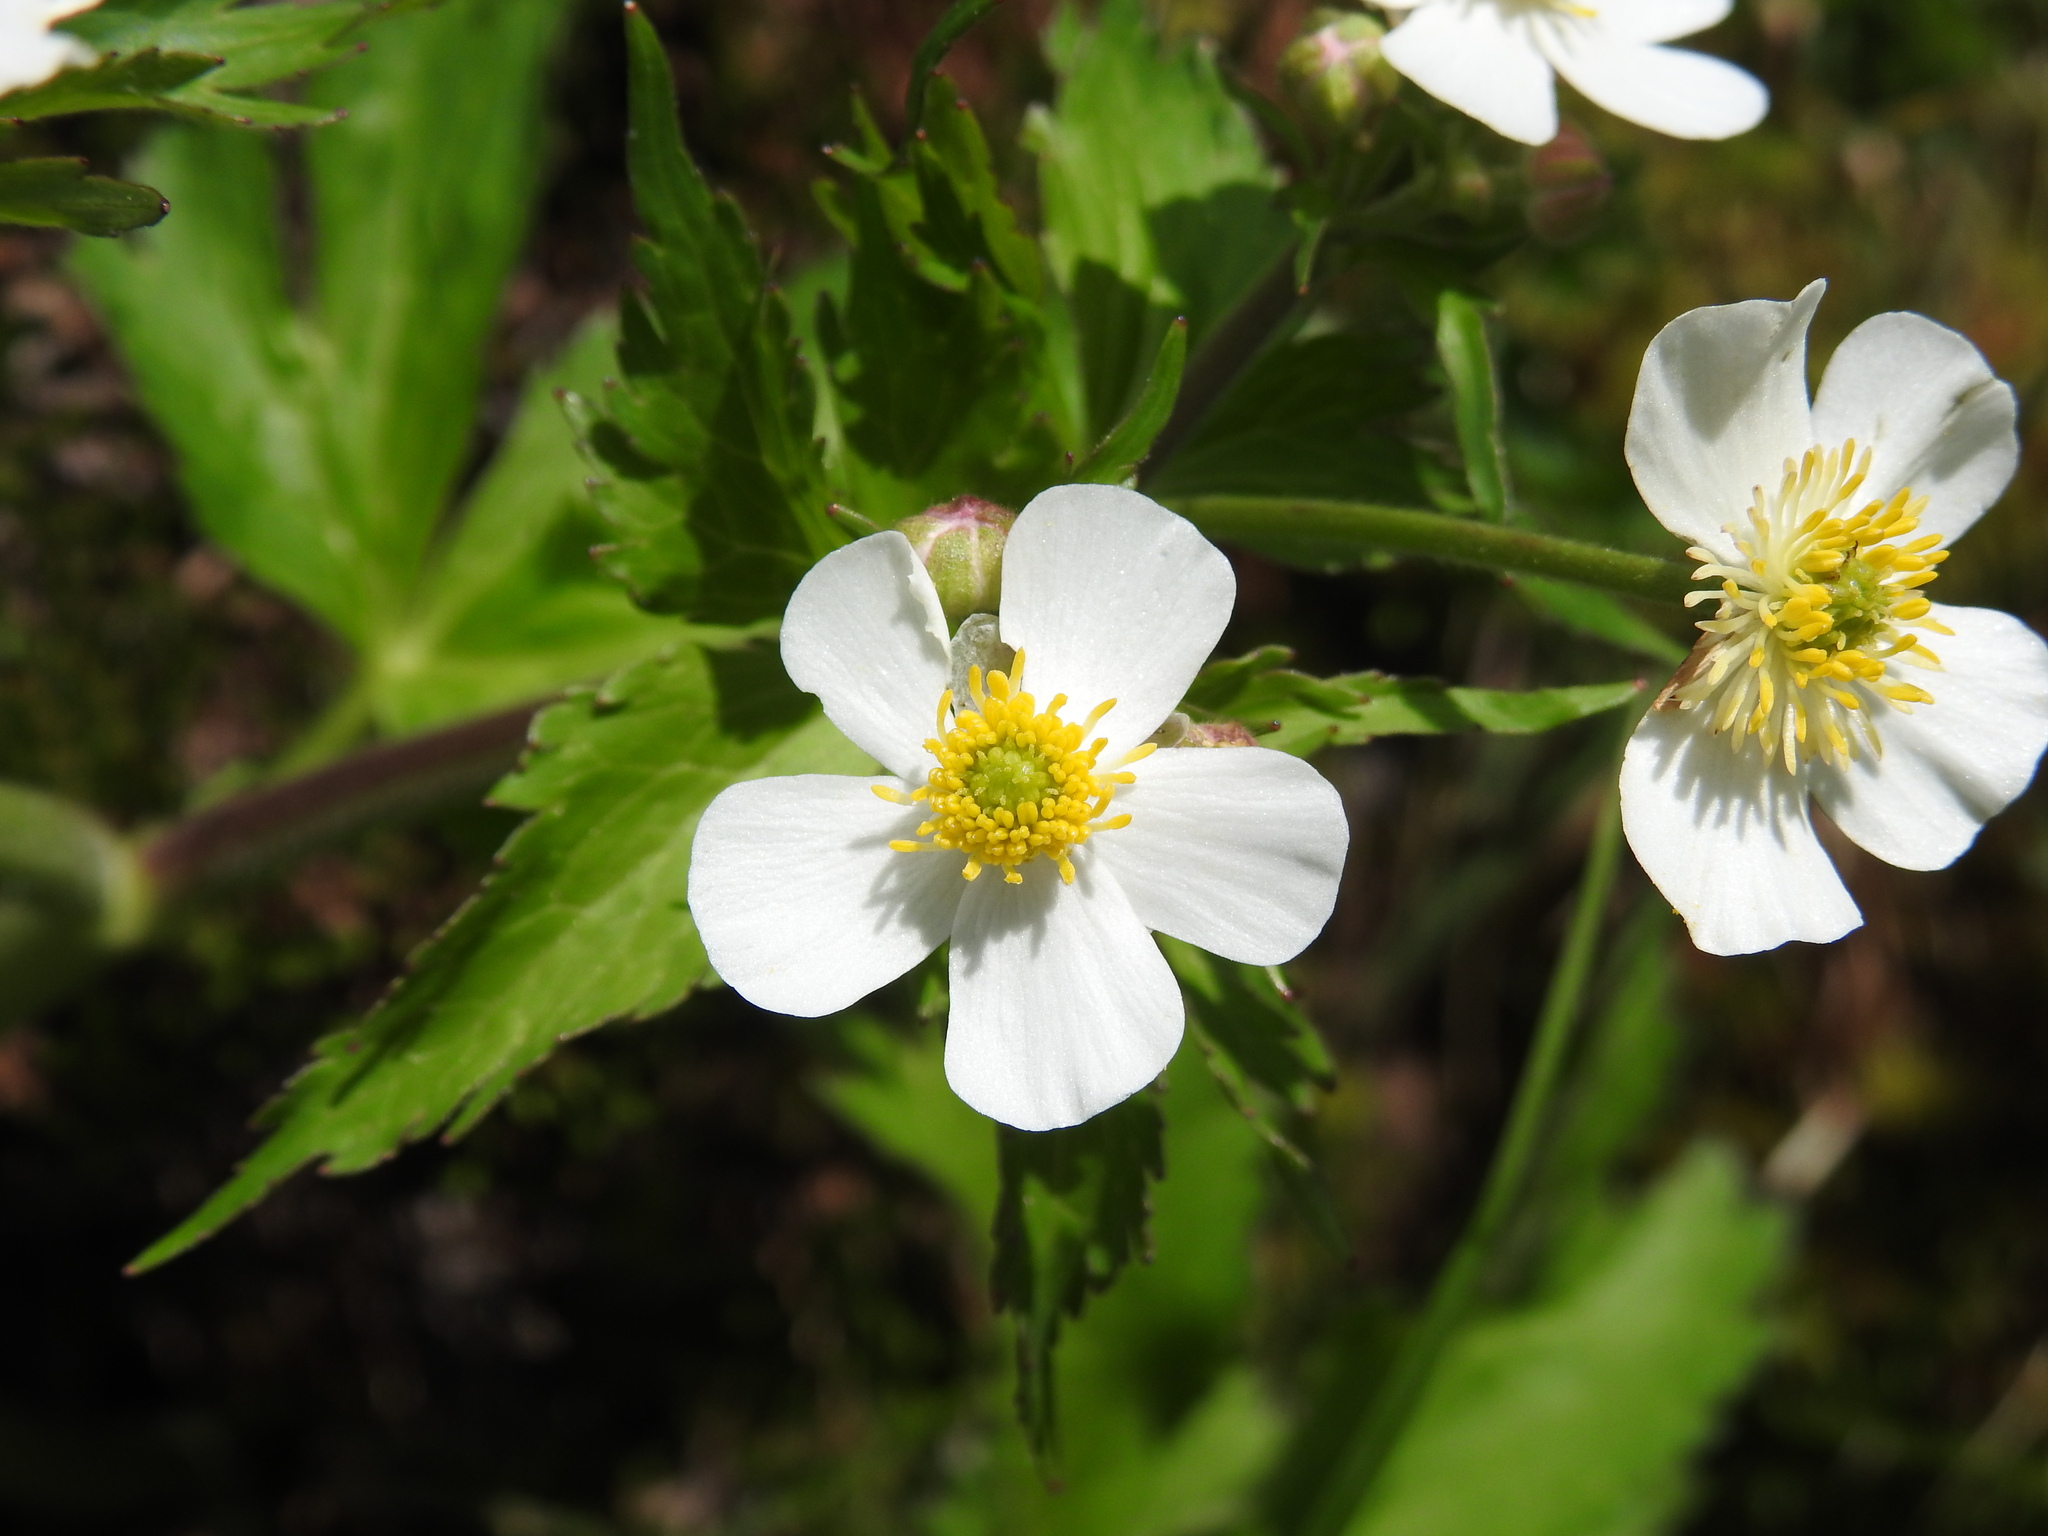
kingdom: Plantae
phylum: Tracheophyta
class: Magnoliopsida
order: Ranunculales
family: Ranunculaceae
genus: Ranunculus
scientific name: Ranunculus aconitifolius
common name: Aconite-leaved buttercup
